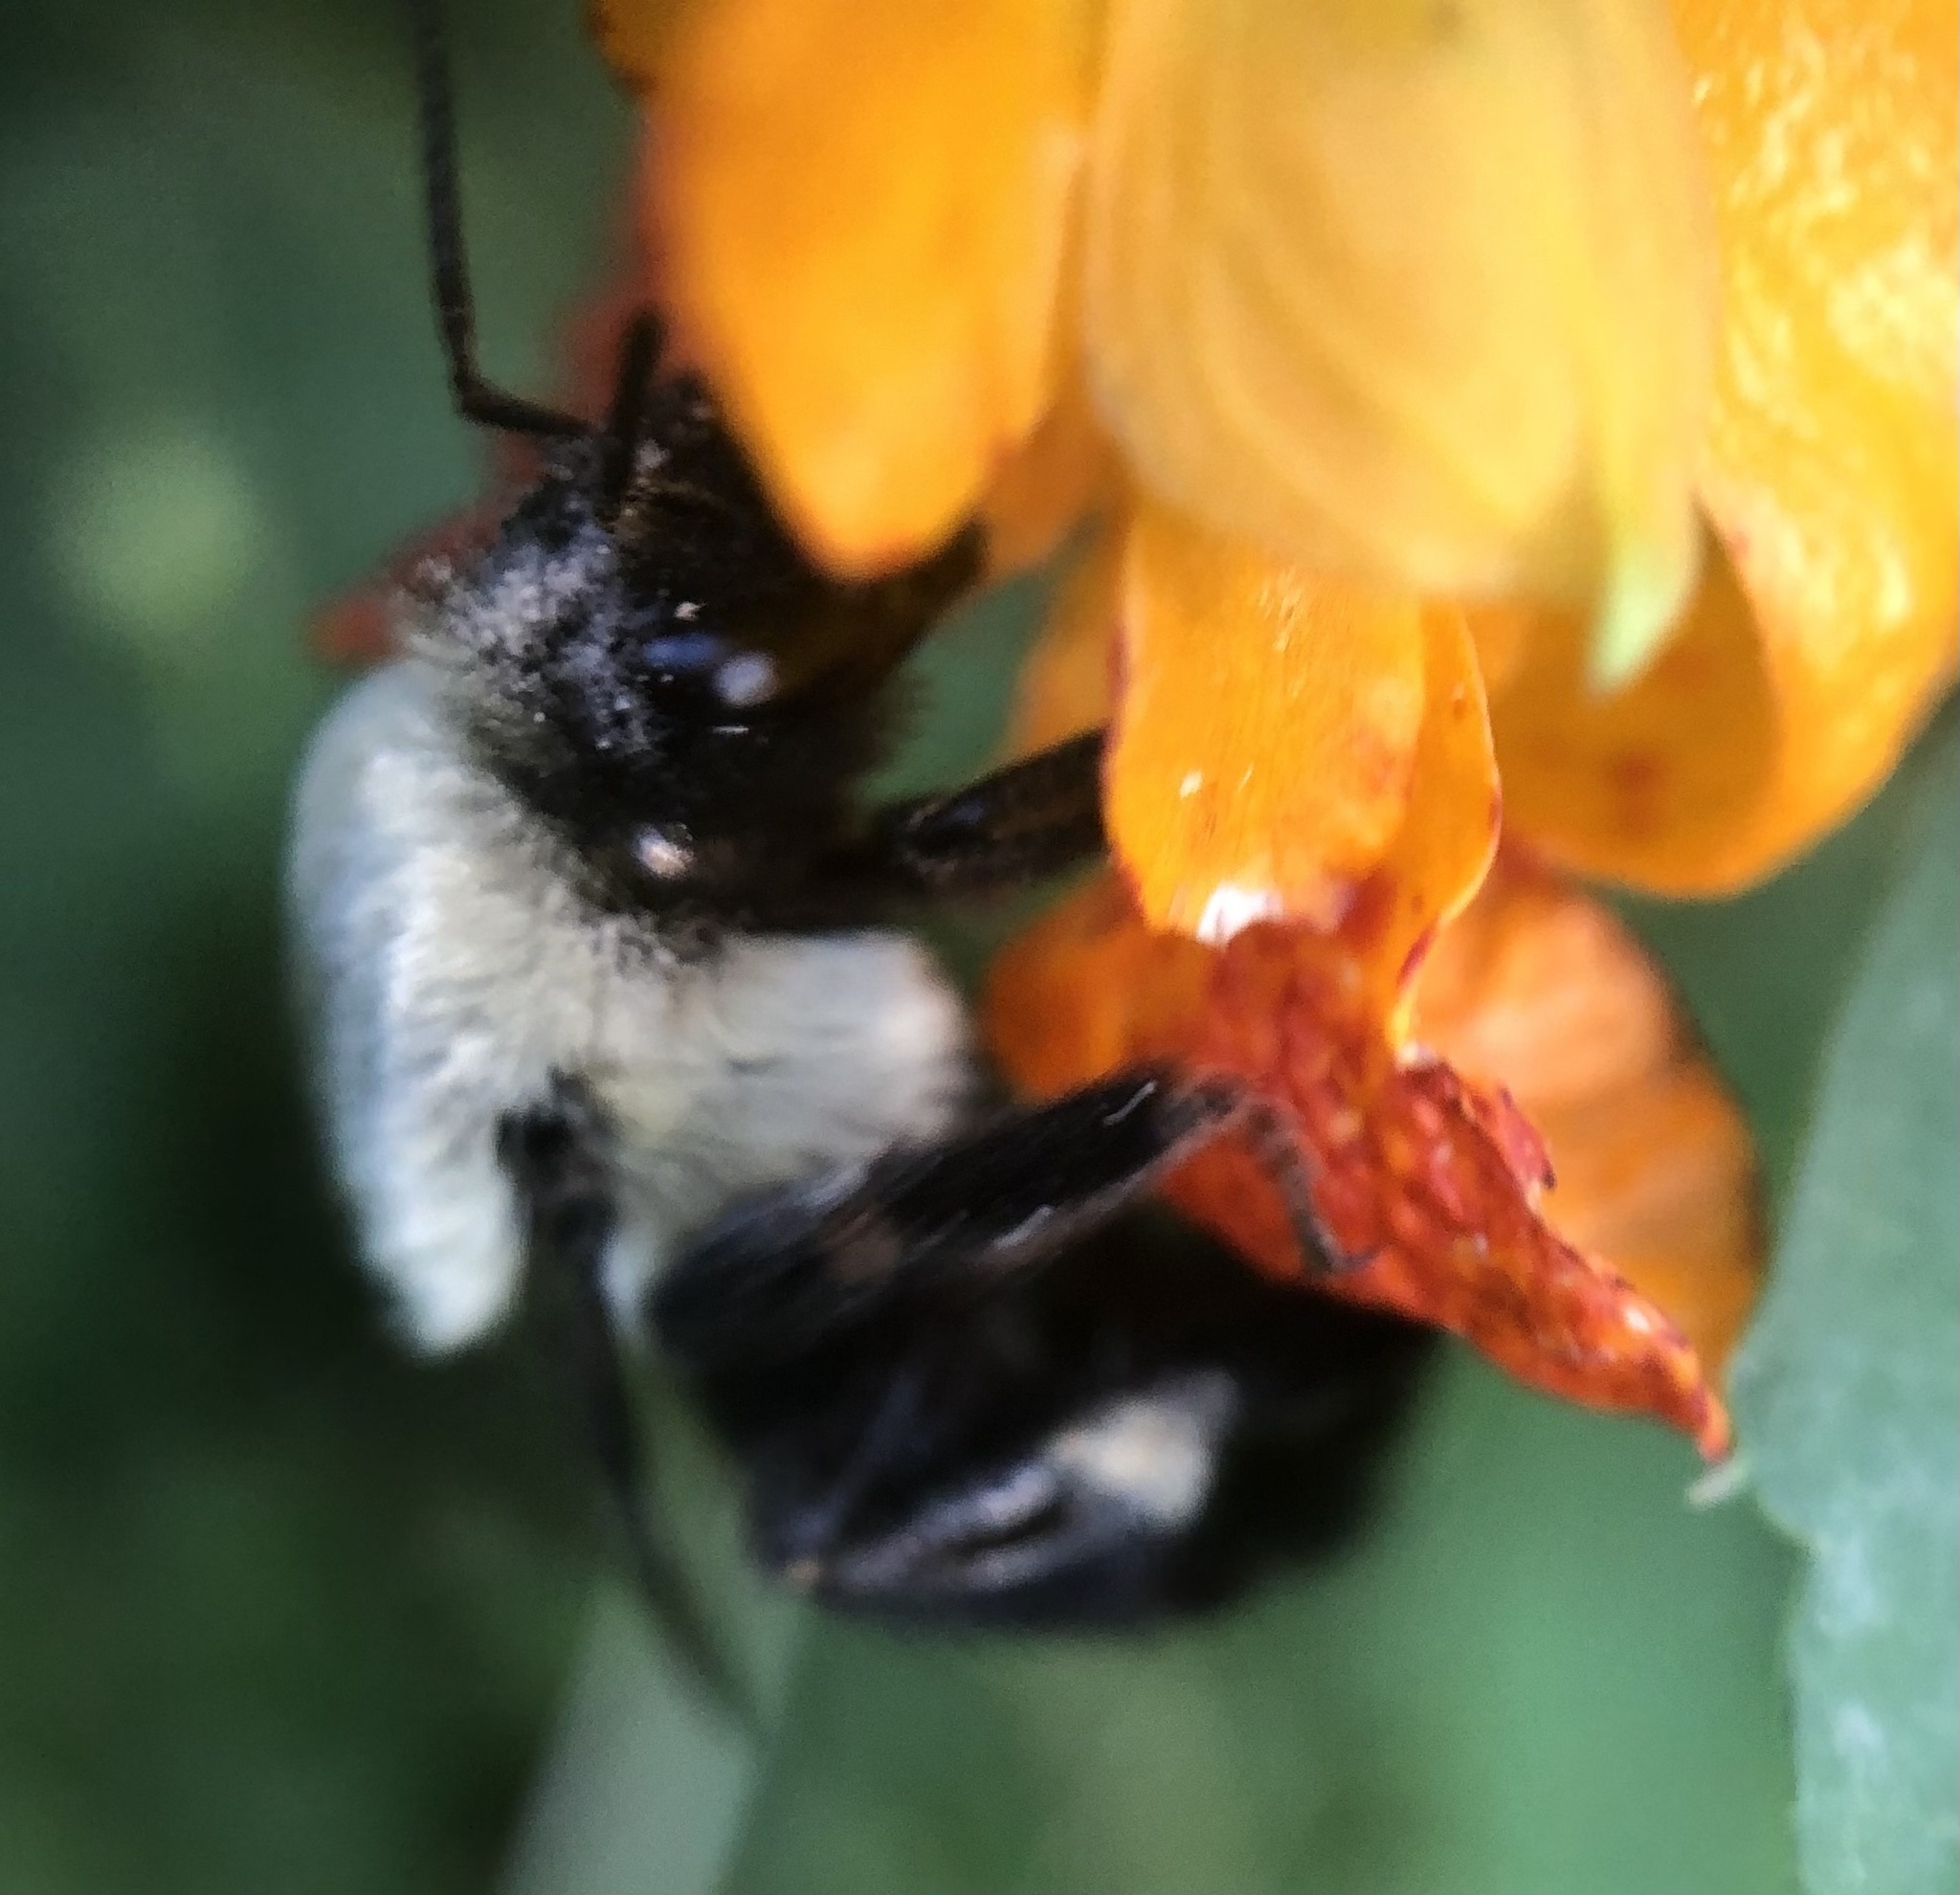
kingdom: Animalia
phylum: Arthropoda
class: Insecta
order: Hymenoptera
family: Apidae
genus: Bombus
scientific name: Bombus impatiens
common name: Common eastern bumble bee
